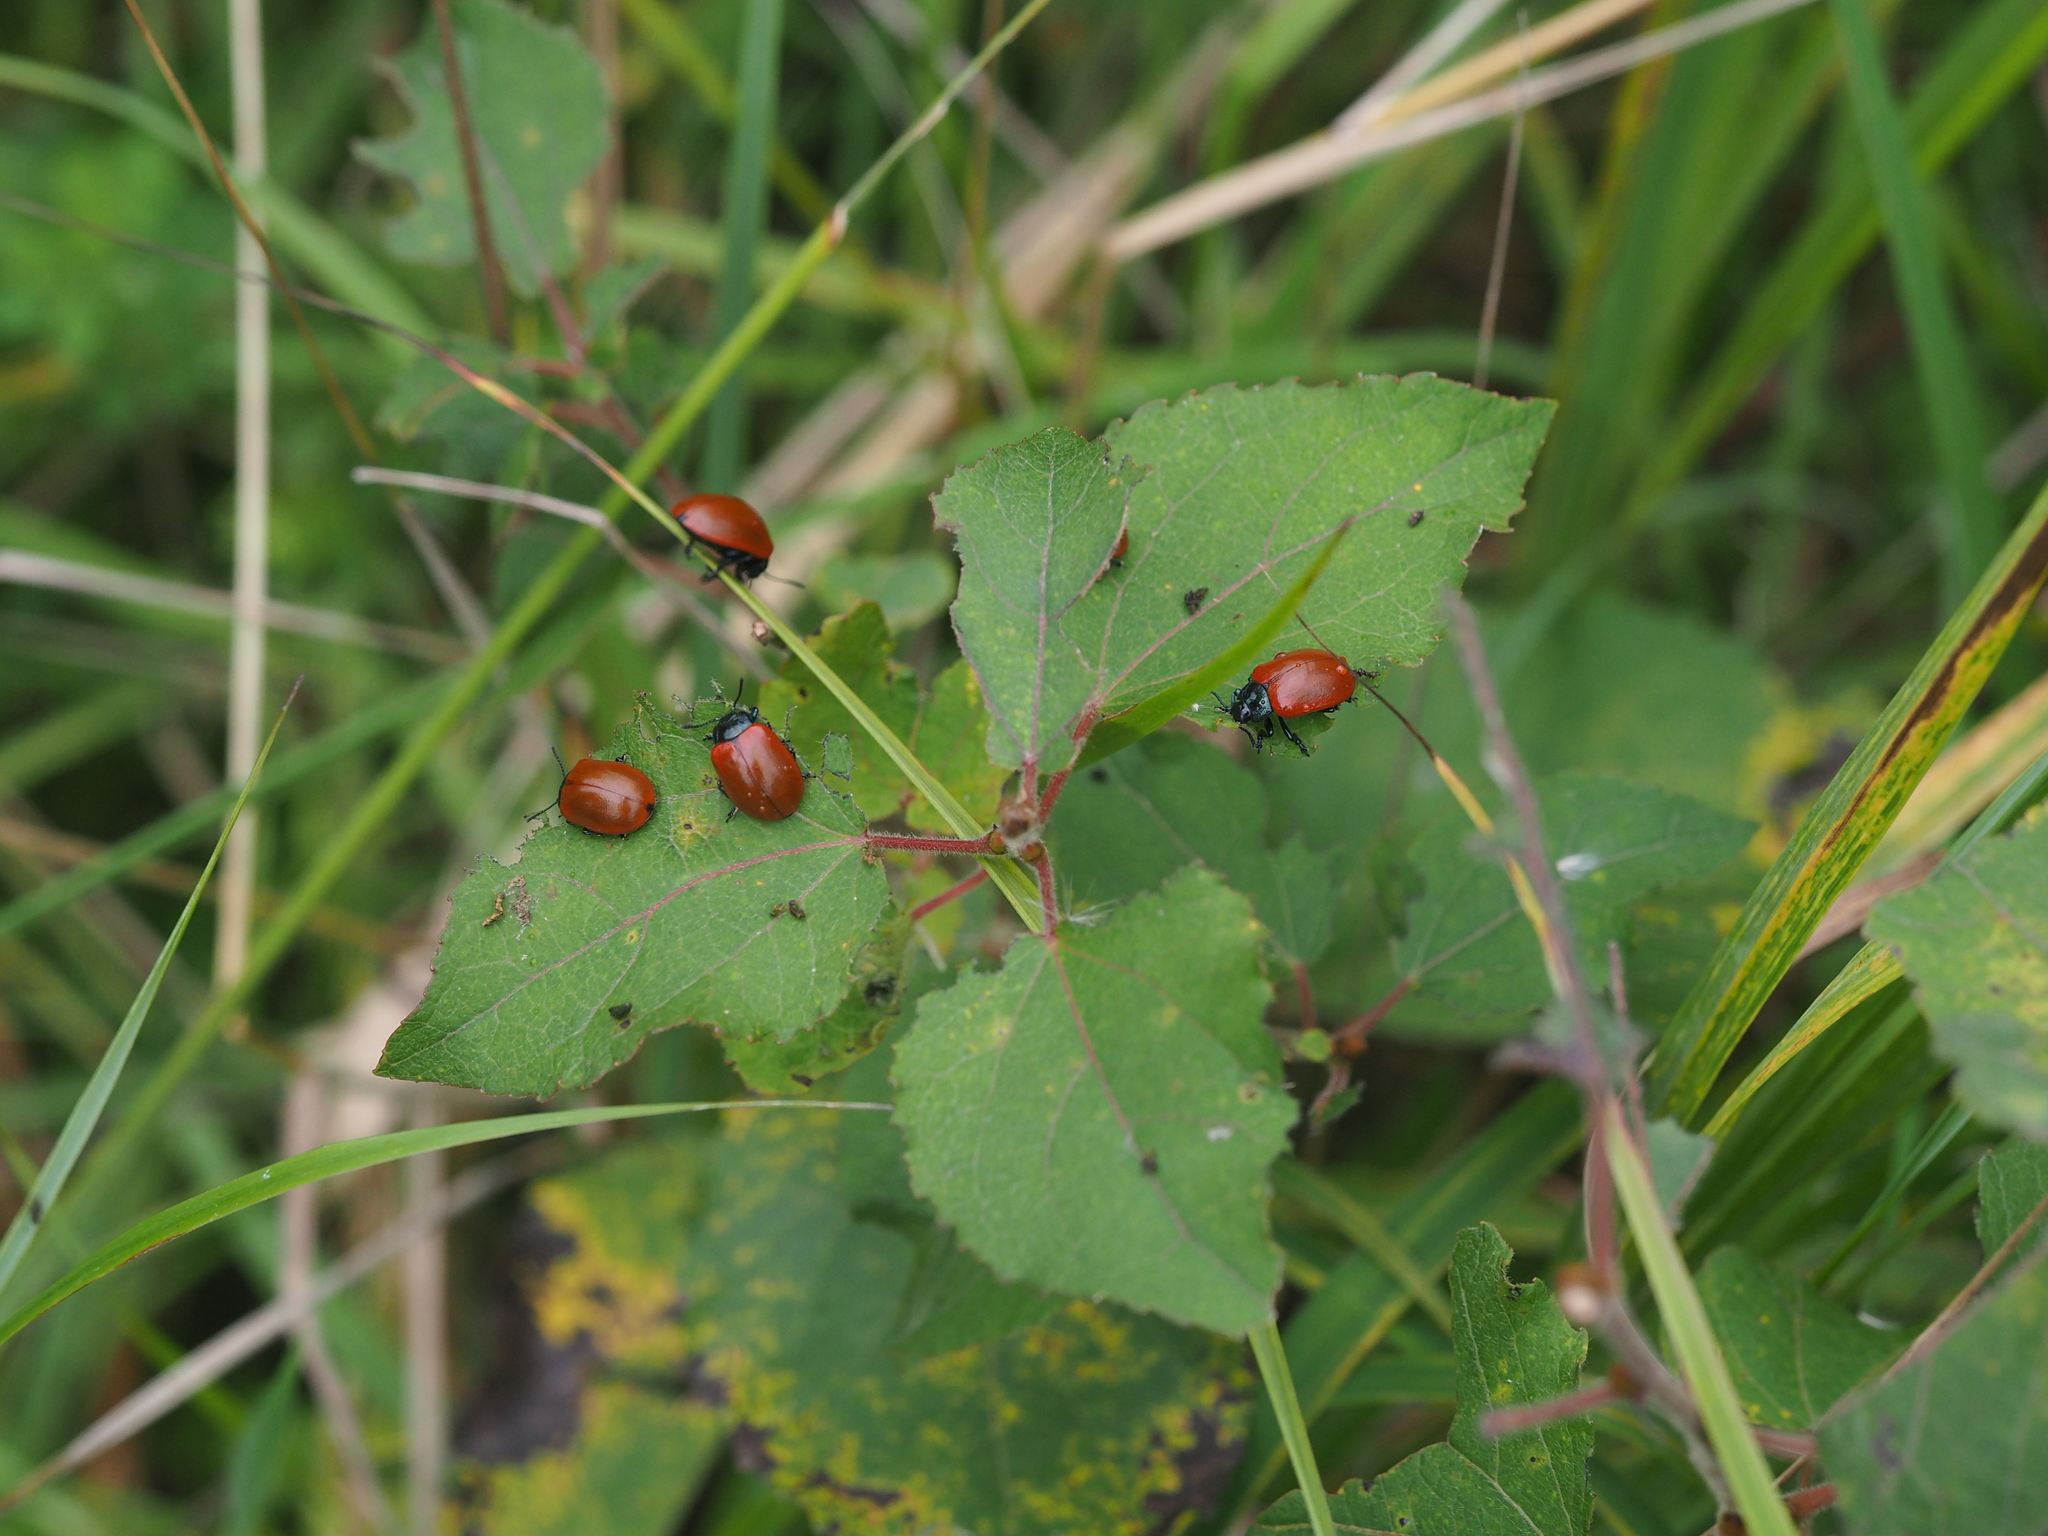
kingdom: Animalia
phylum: Arthropoda
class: Insecta
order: Coleoptera
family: Chrysomelidae
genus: Chrysomela
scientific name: Chrysomela populi
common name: Red poplar leaf beetle
